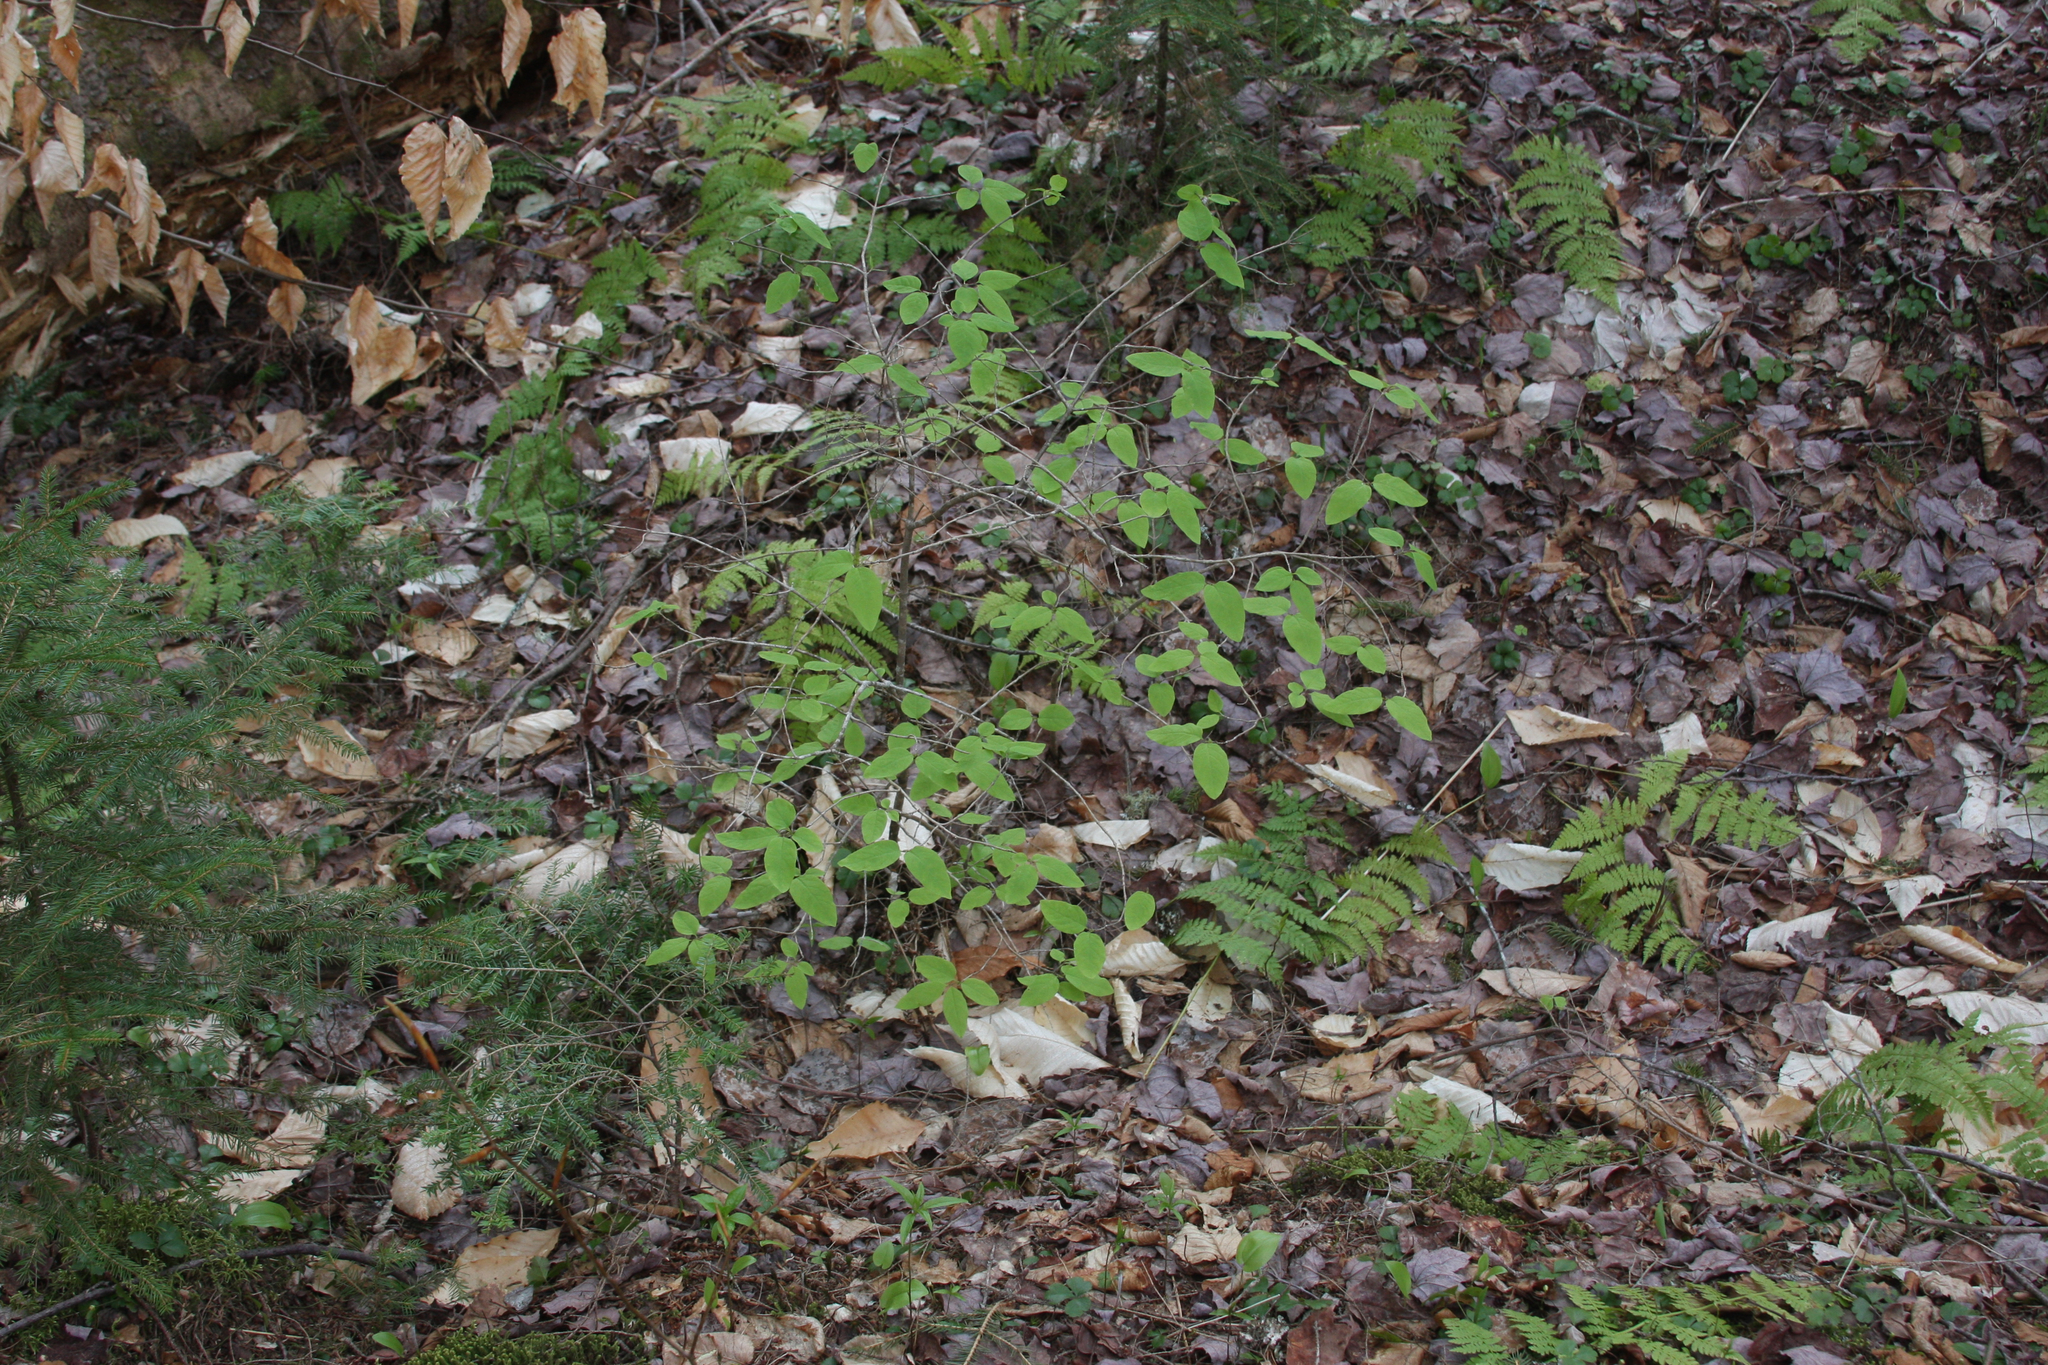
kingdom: Plantae
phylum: Tracheophyta
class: Magnoliopsida
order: Dipsacales
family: Caprifoliaceae
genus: Lonicera
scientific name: Lonicera canadensis
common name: American fly-honeysuckle
